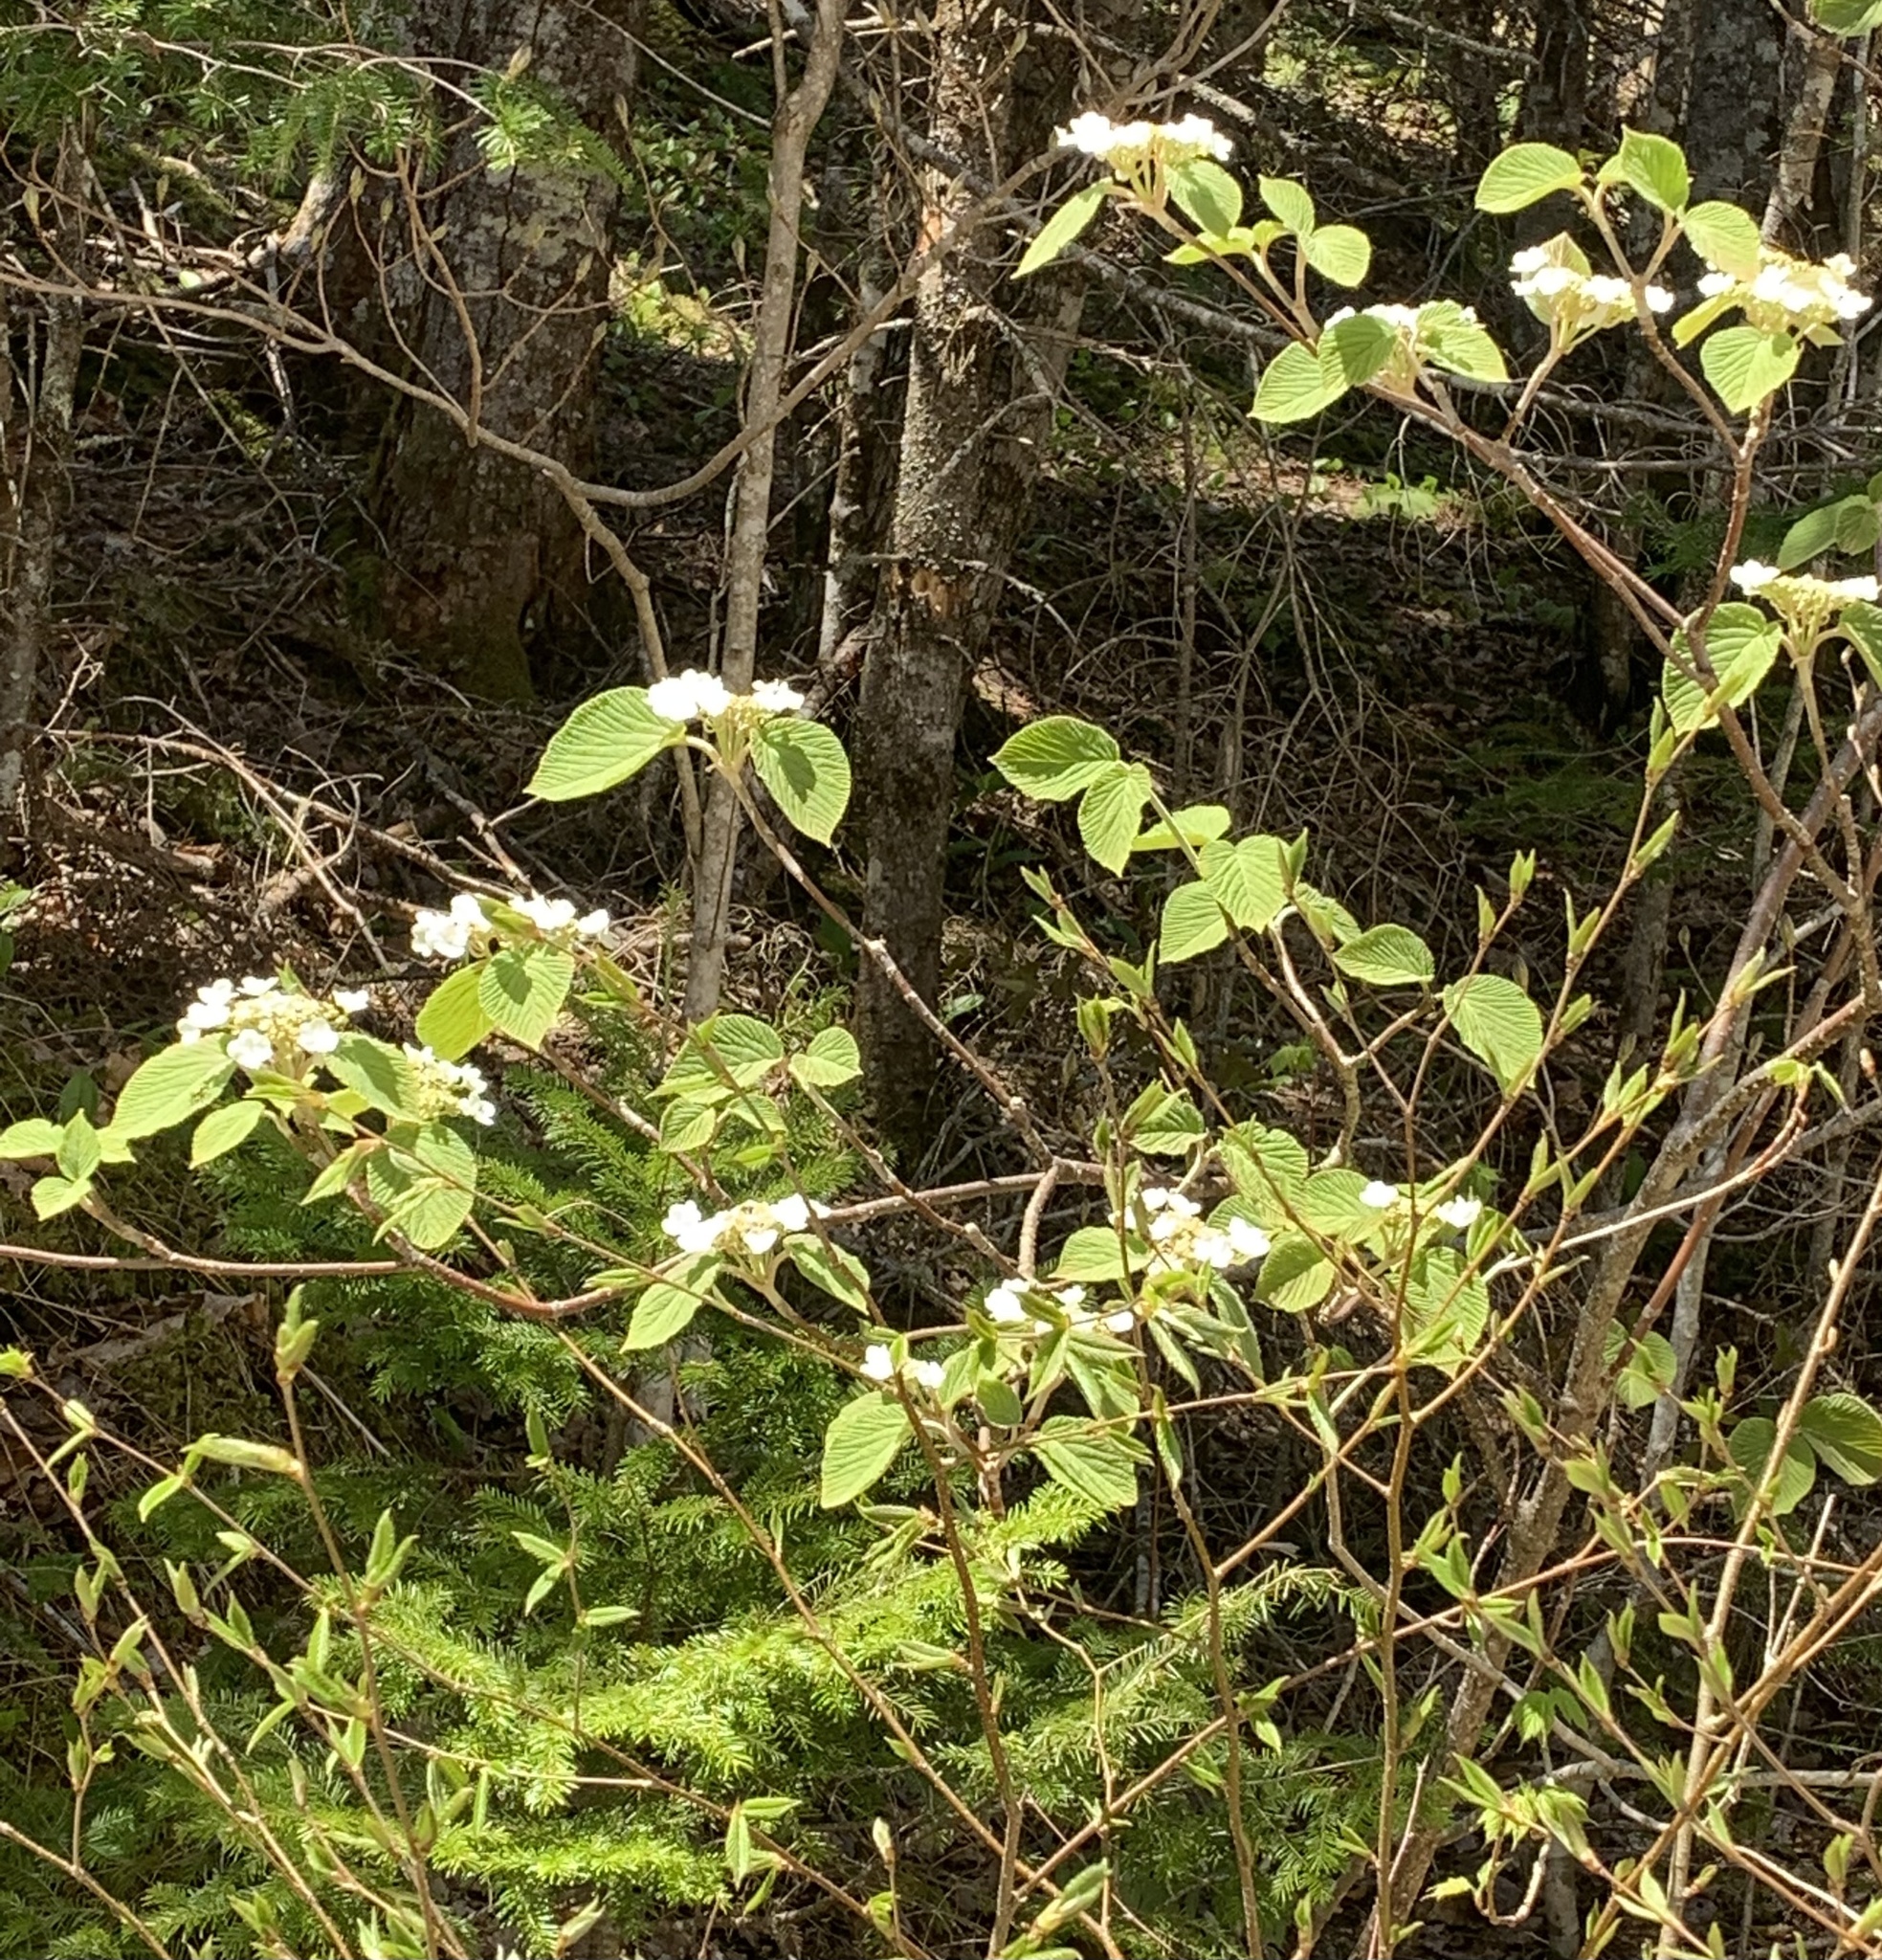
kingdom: Plantae
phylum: Tracheophyta
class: Magnoliopsida
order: Dipsacales
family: Viburnaceae
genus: Viburnum
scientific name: Viburnum lantanoides
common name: Hobblebush
